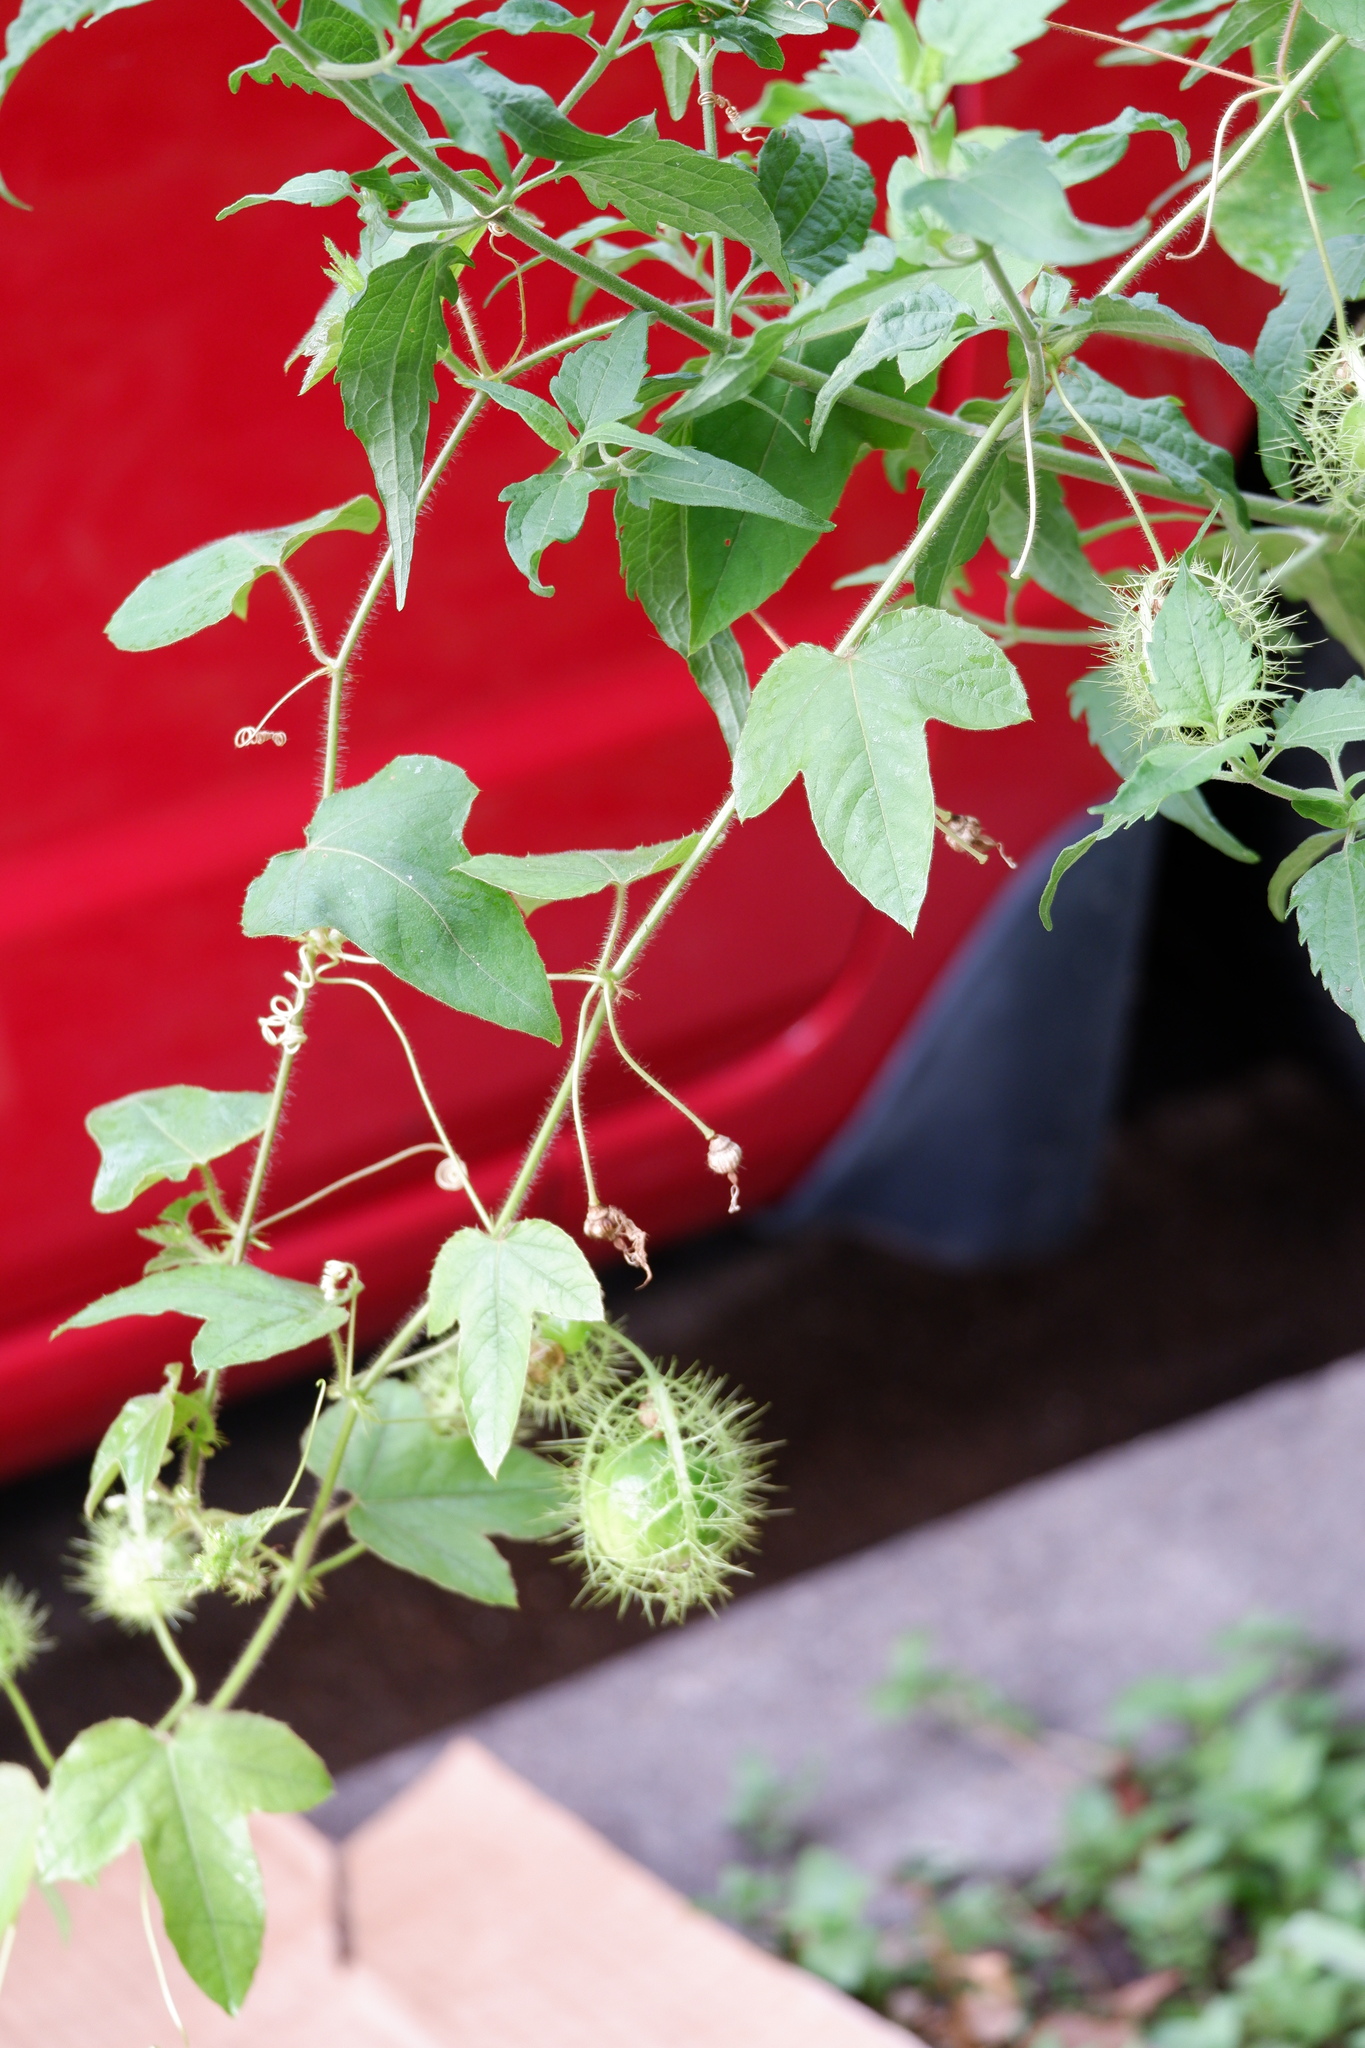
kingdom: Plantae
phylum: Tracheophyta
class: Magnoliopsida
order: Malpighiales
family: Passifloraceae
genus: Passiflora
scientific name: Passiflora
